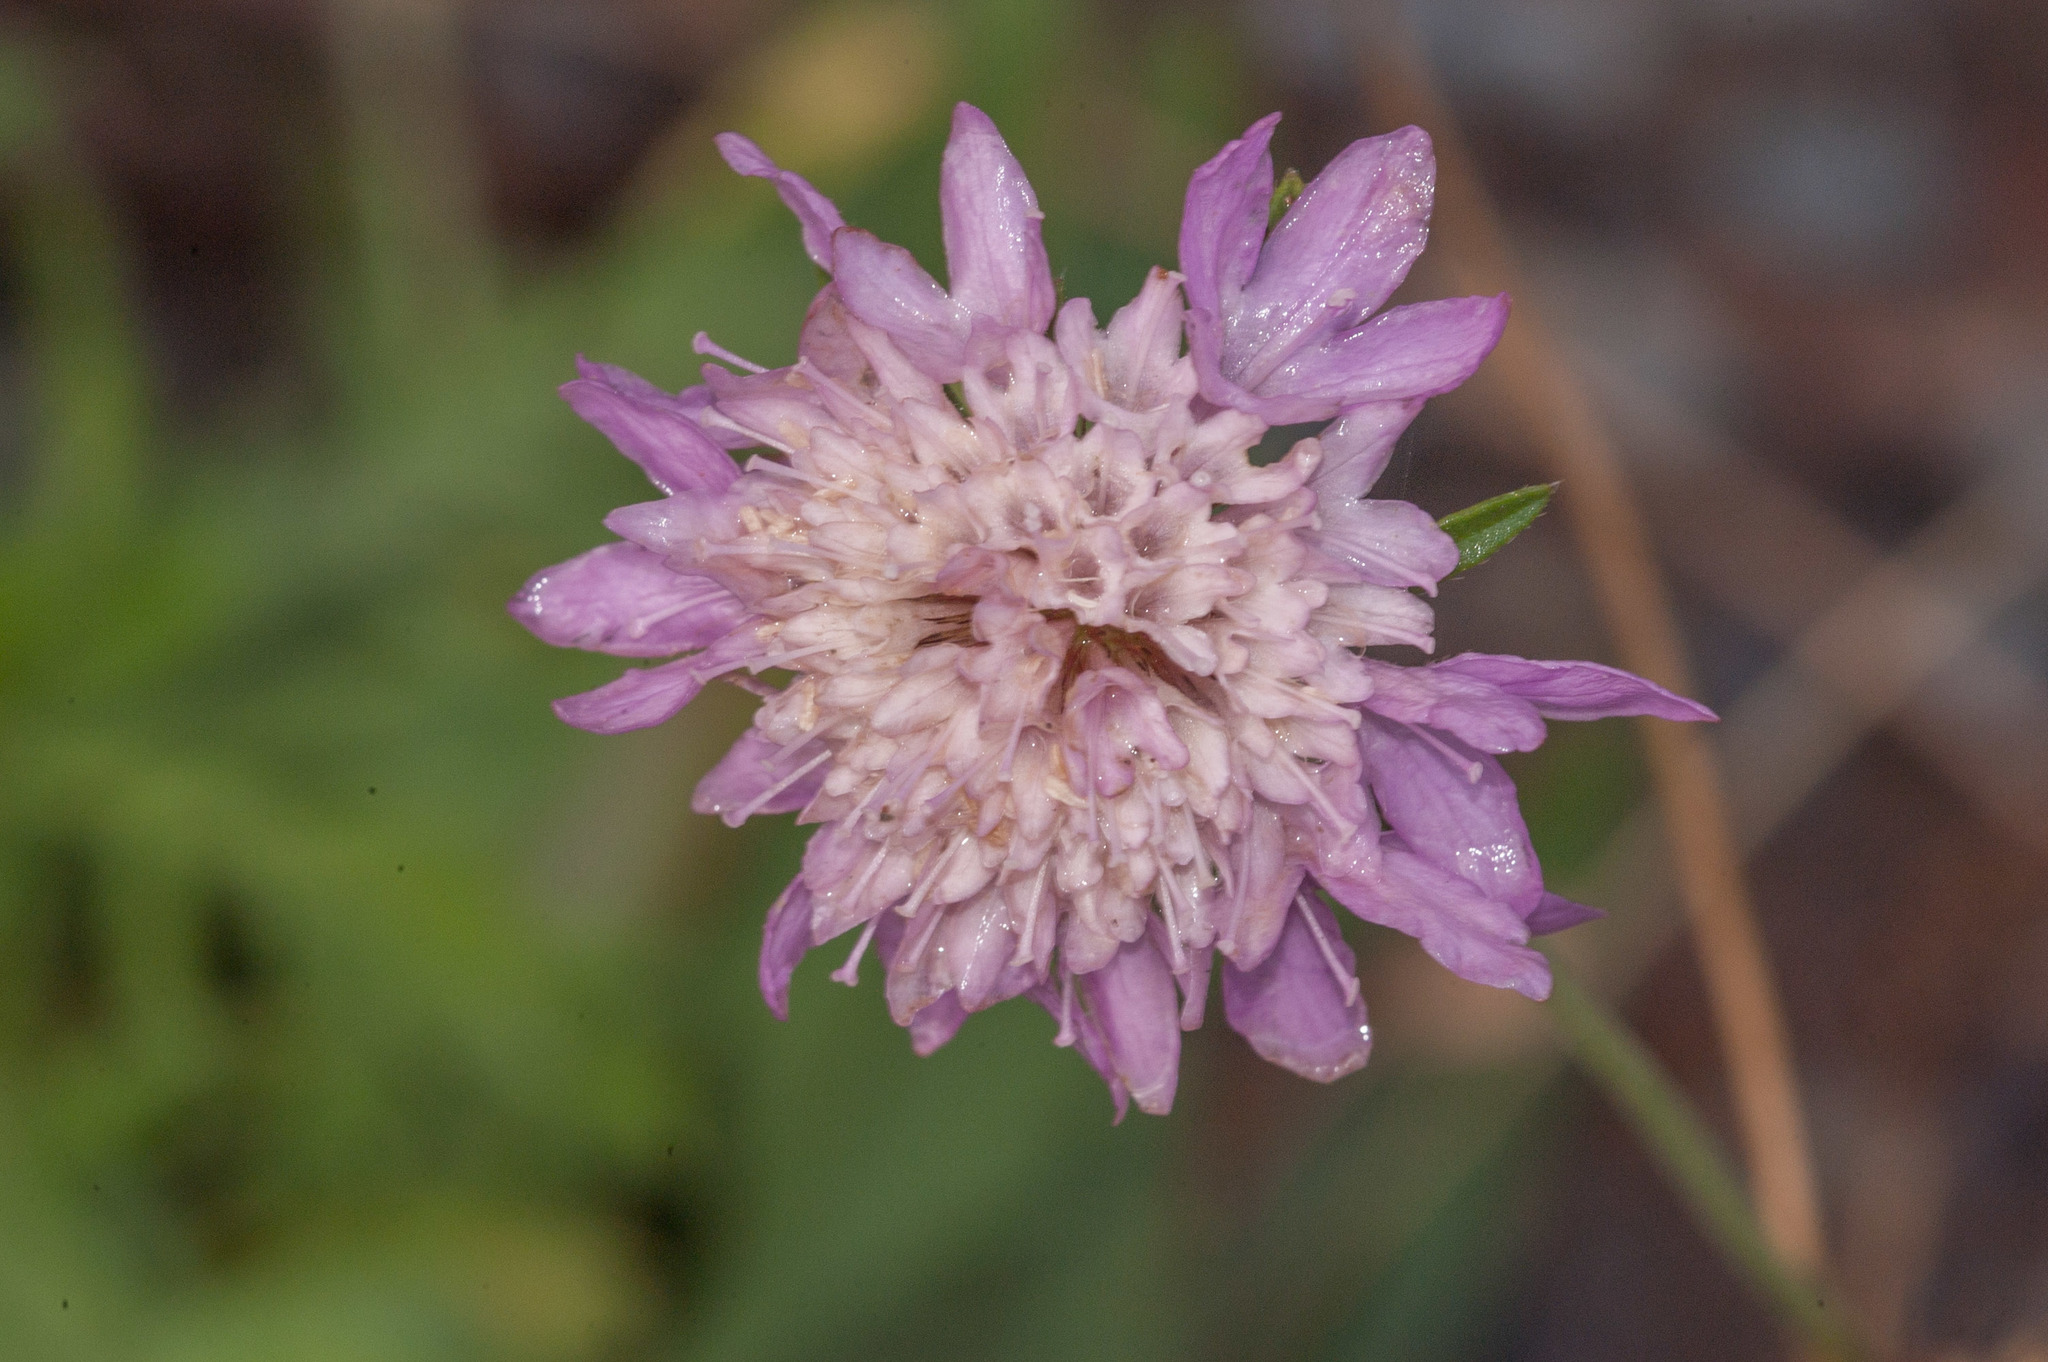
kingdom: Plantae
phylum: Tracheophyta
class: Magnoliopsida
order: Dipsacales
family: Caprifoliaceae
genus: Sixalix
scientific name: Sixalix atropurpurea
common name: Sweet scabious
